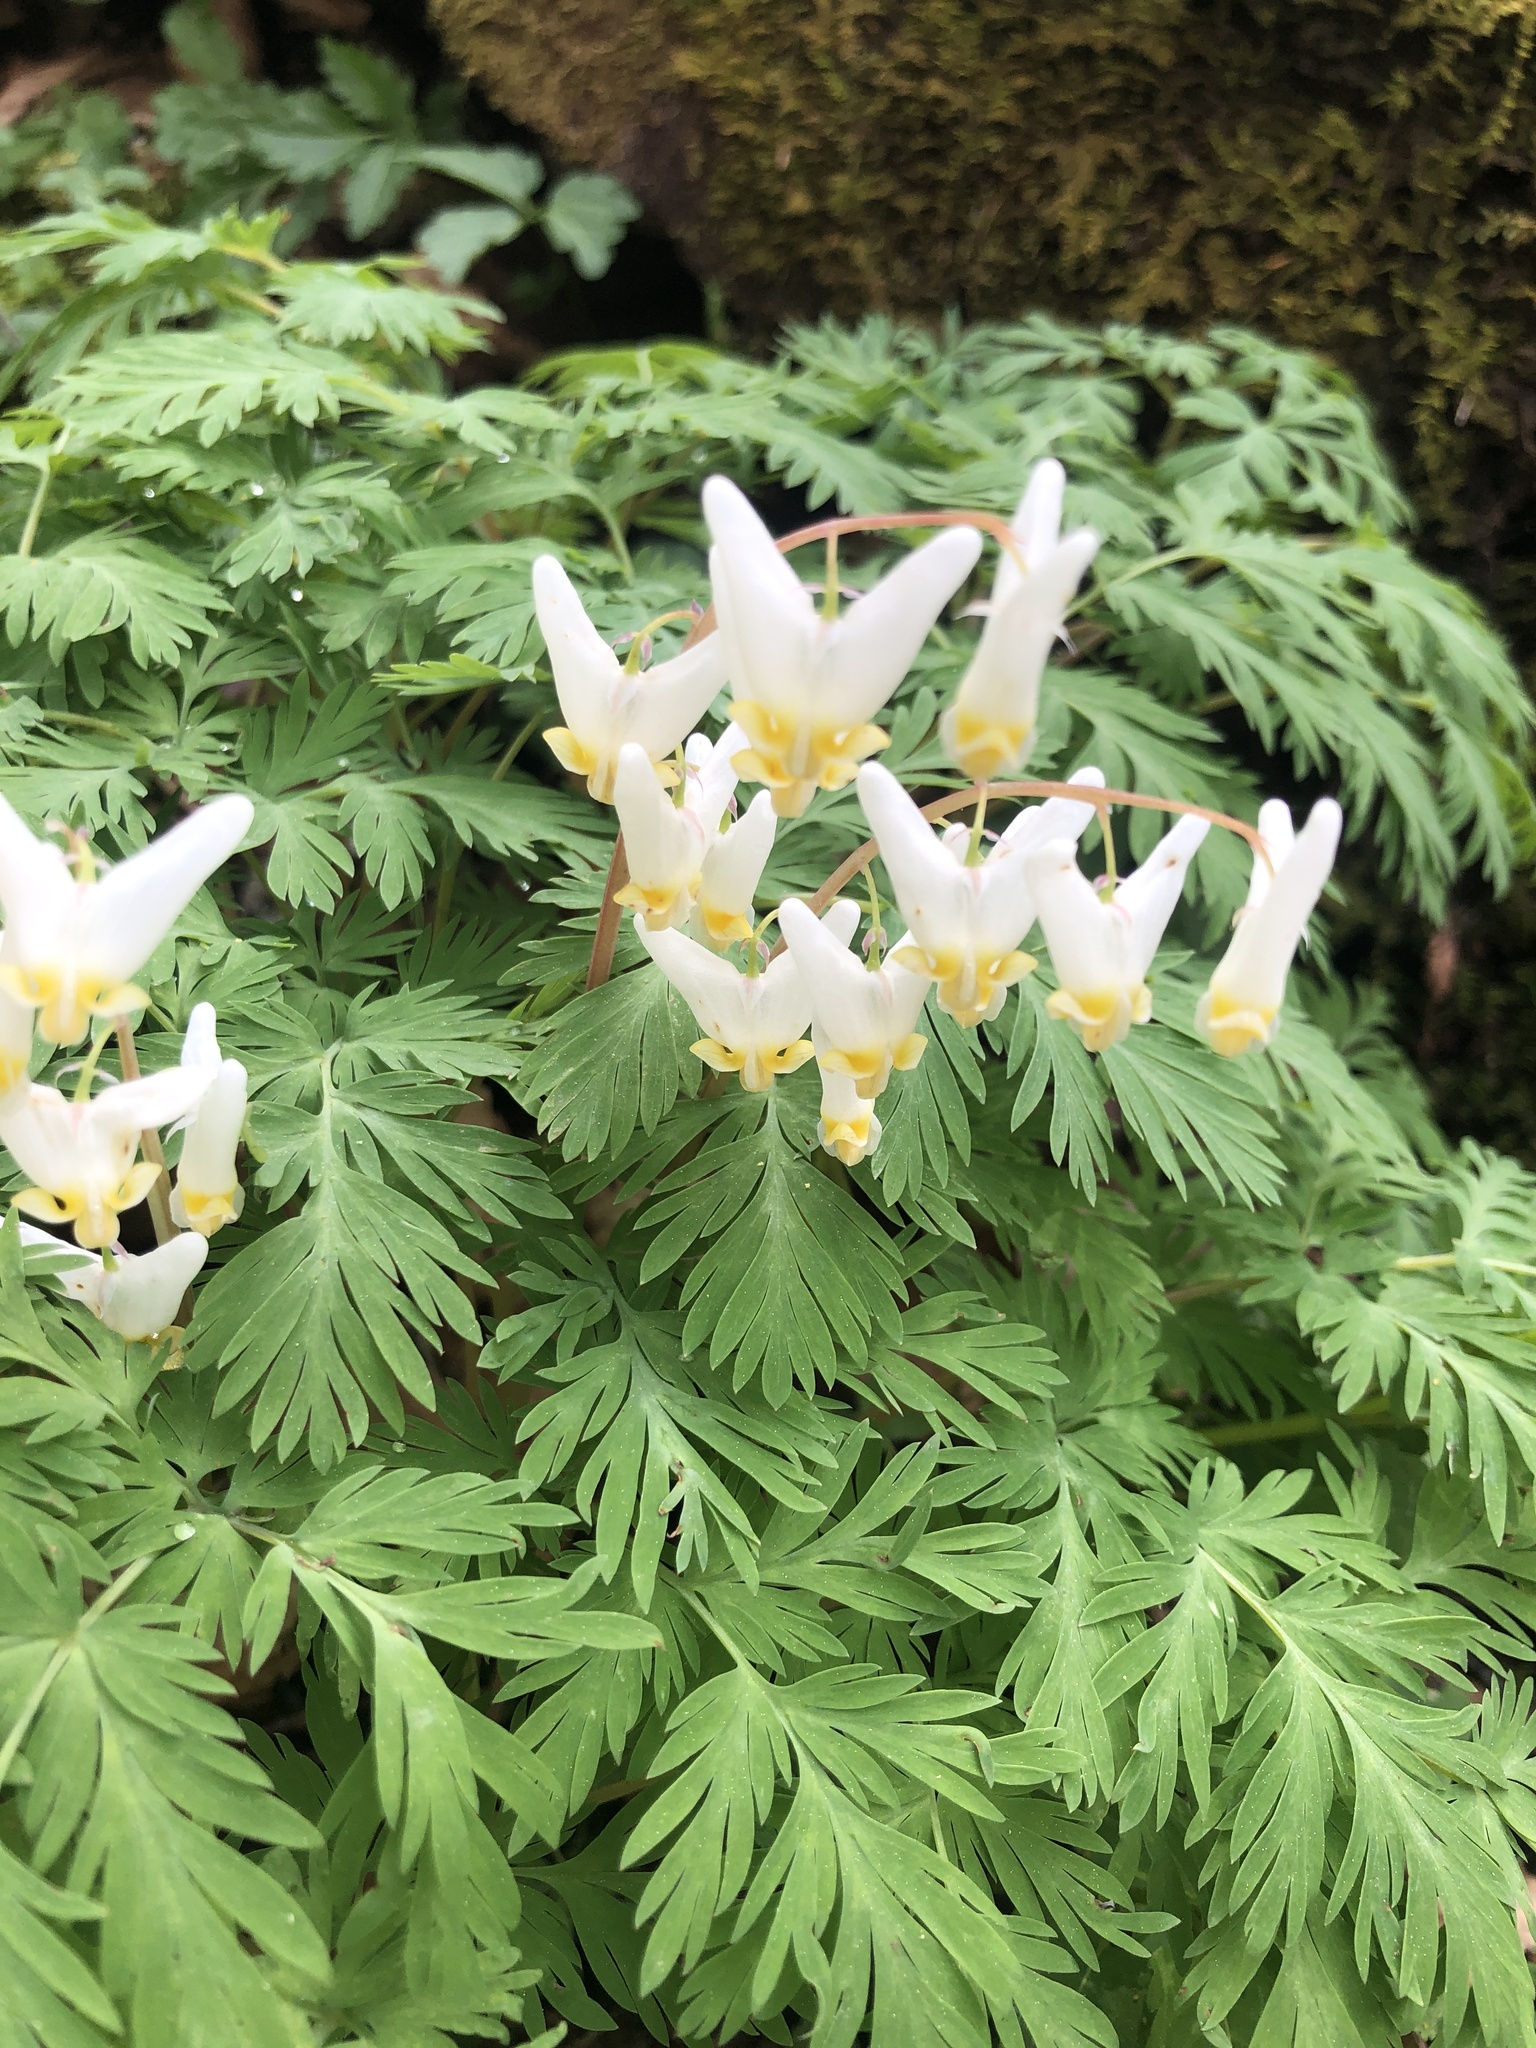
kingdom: Plantae
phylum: Tracheophyta
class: Magnoliopsida
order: Ranunculales
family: Papaveraceae
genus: Dicentra
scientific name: Dicentra cucullaria
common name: Dutchman's breeches
